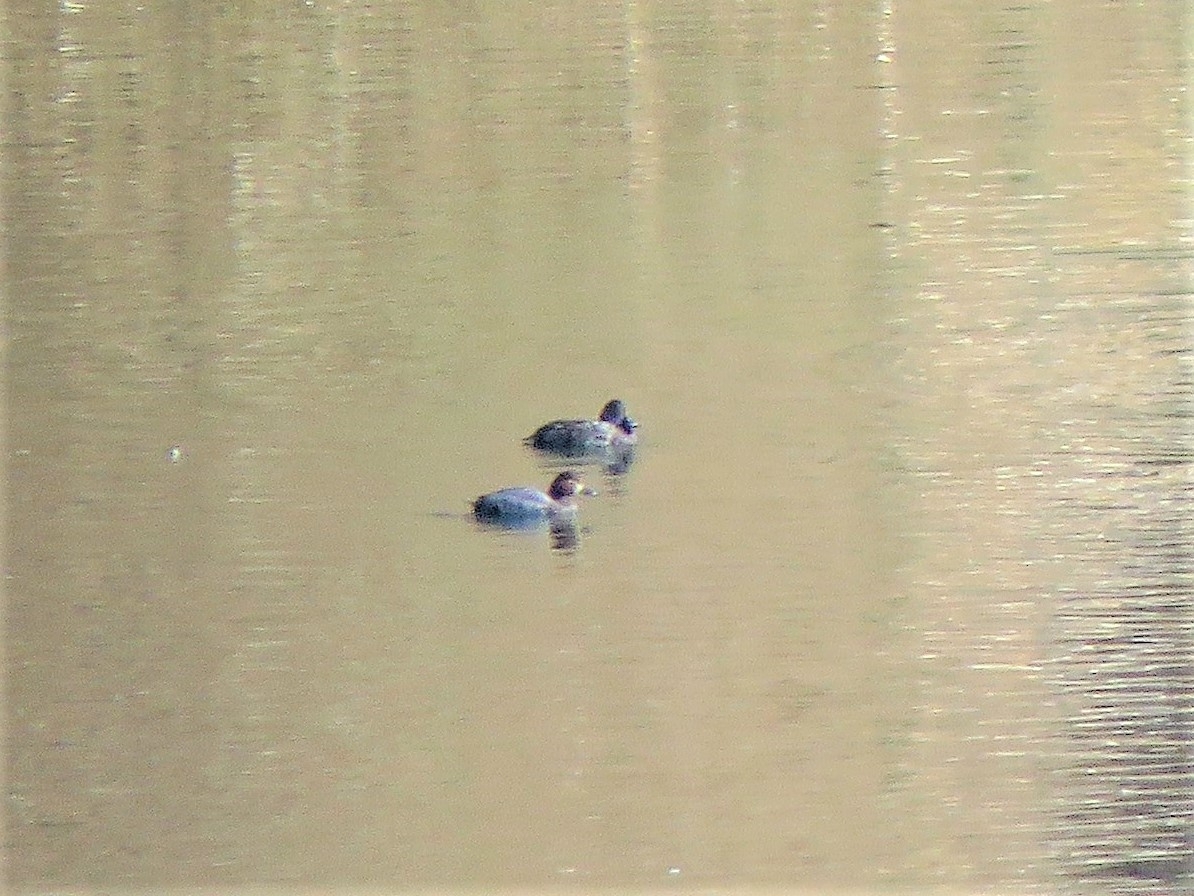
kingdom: Animalia
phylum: Chordata
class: Aves
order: Anseriformes
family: Anatidae
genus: Aythya
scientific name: Aythya ferina
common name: Common pochard
